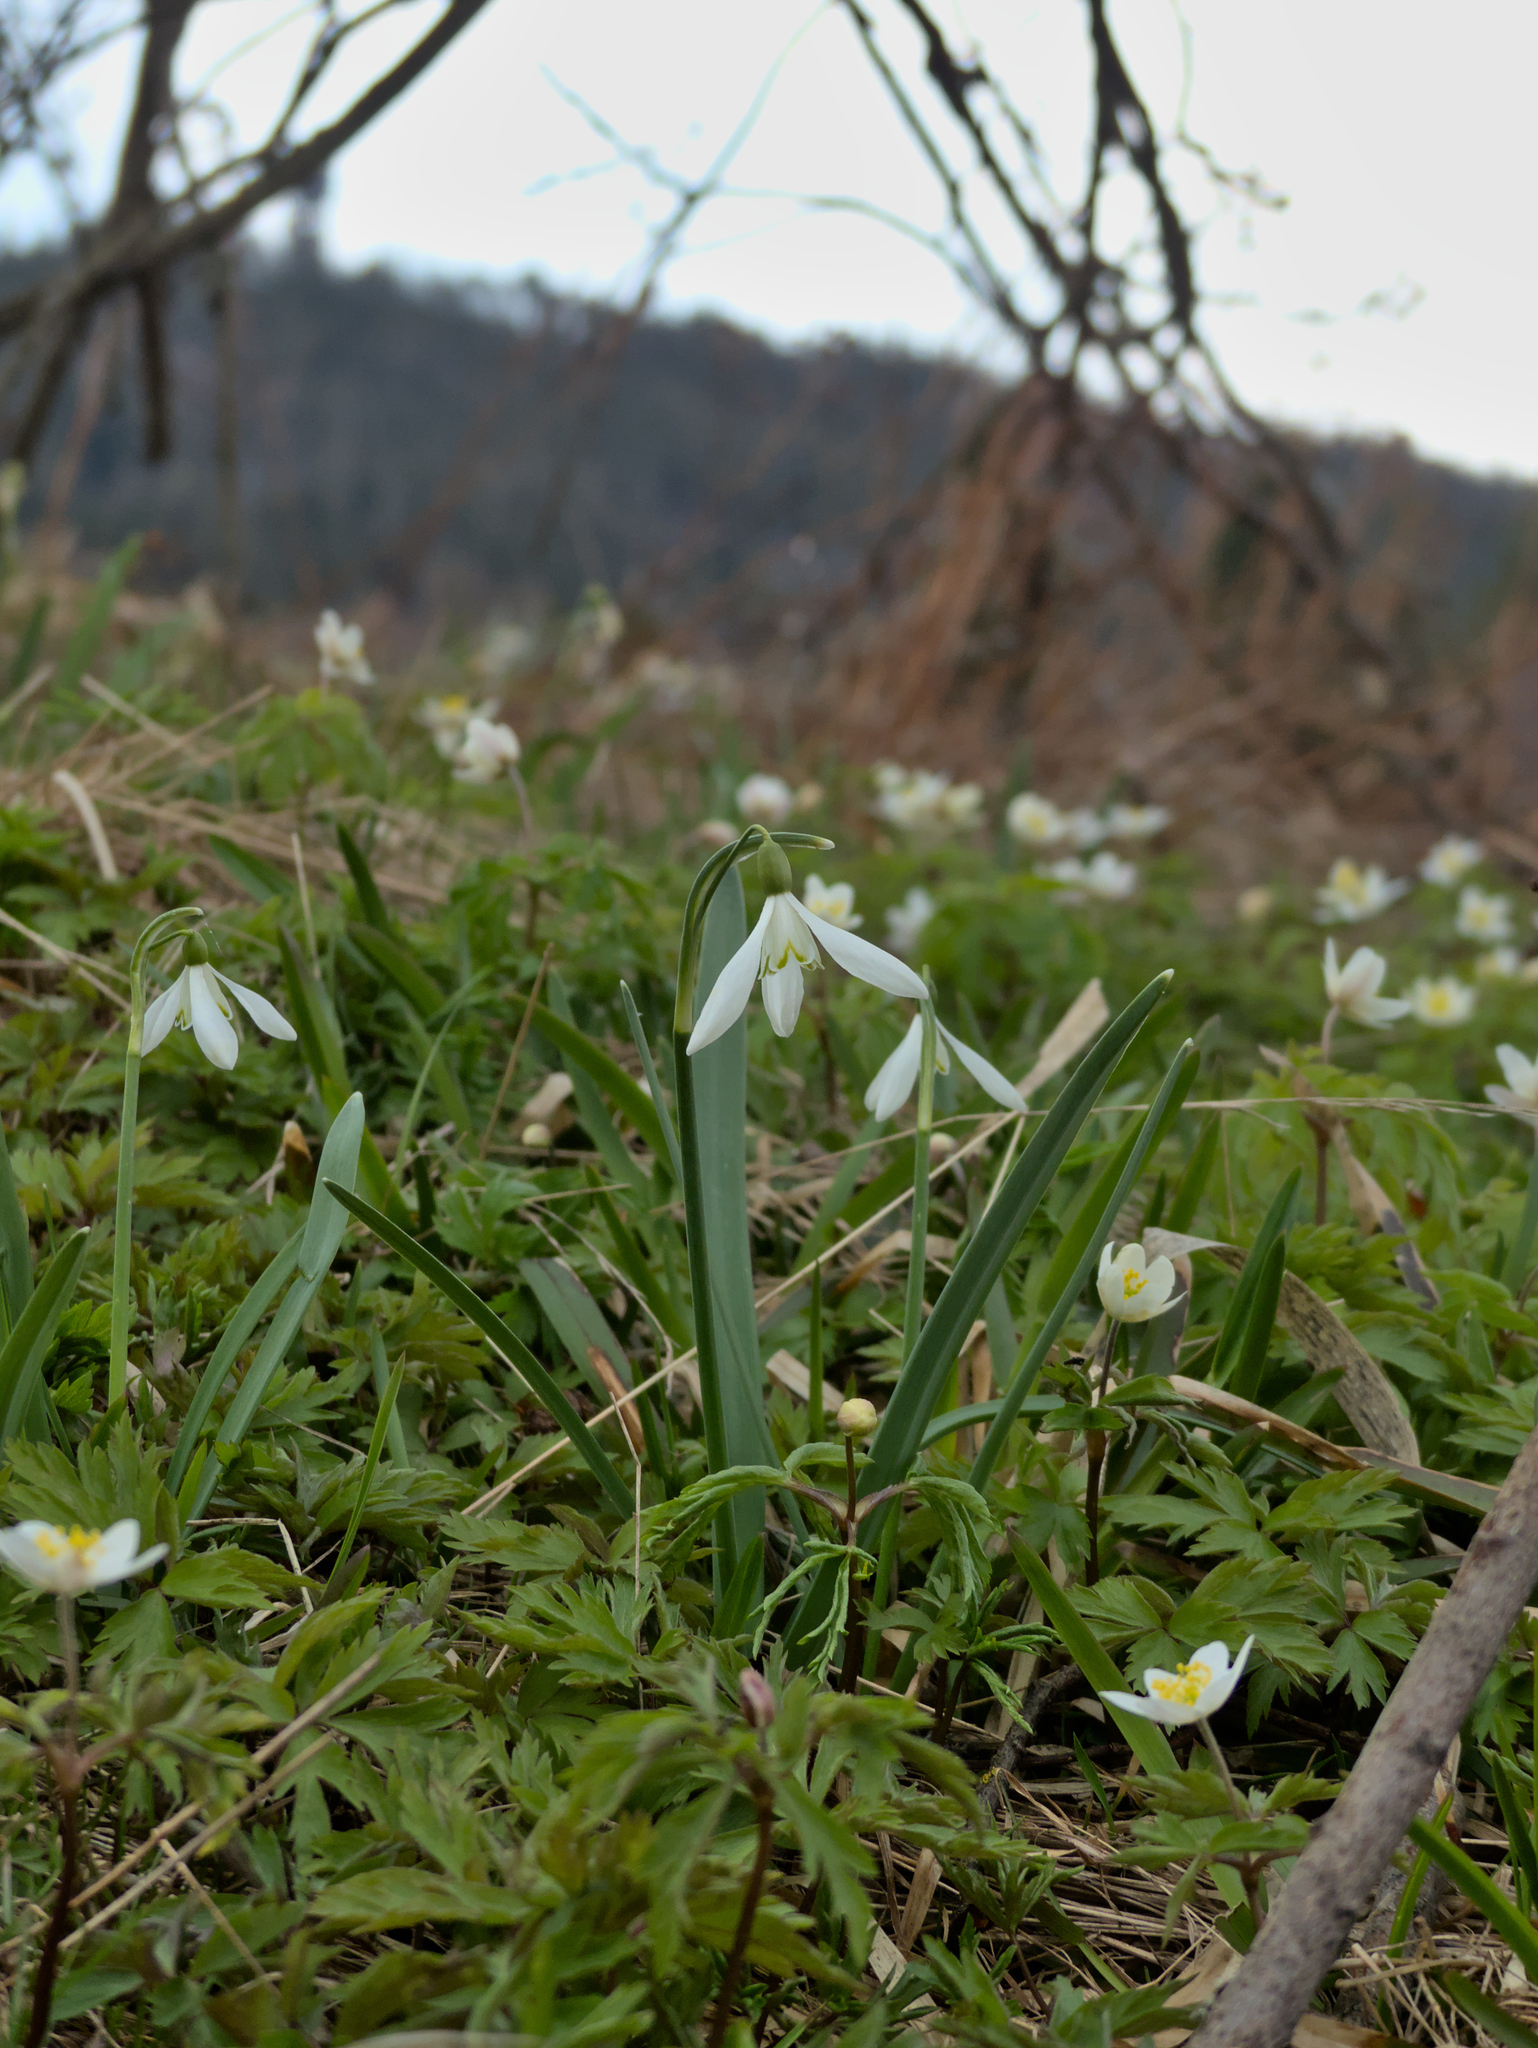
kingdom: Plantae
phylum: Tracheophyta
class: Liliopsida
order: Asparagales
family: Amaryllidaceae
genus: Galanthus
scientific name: Galanthus nivalis
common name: Snowdrop
